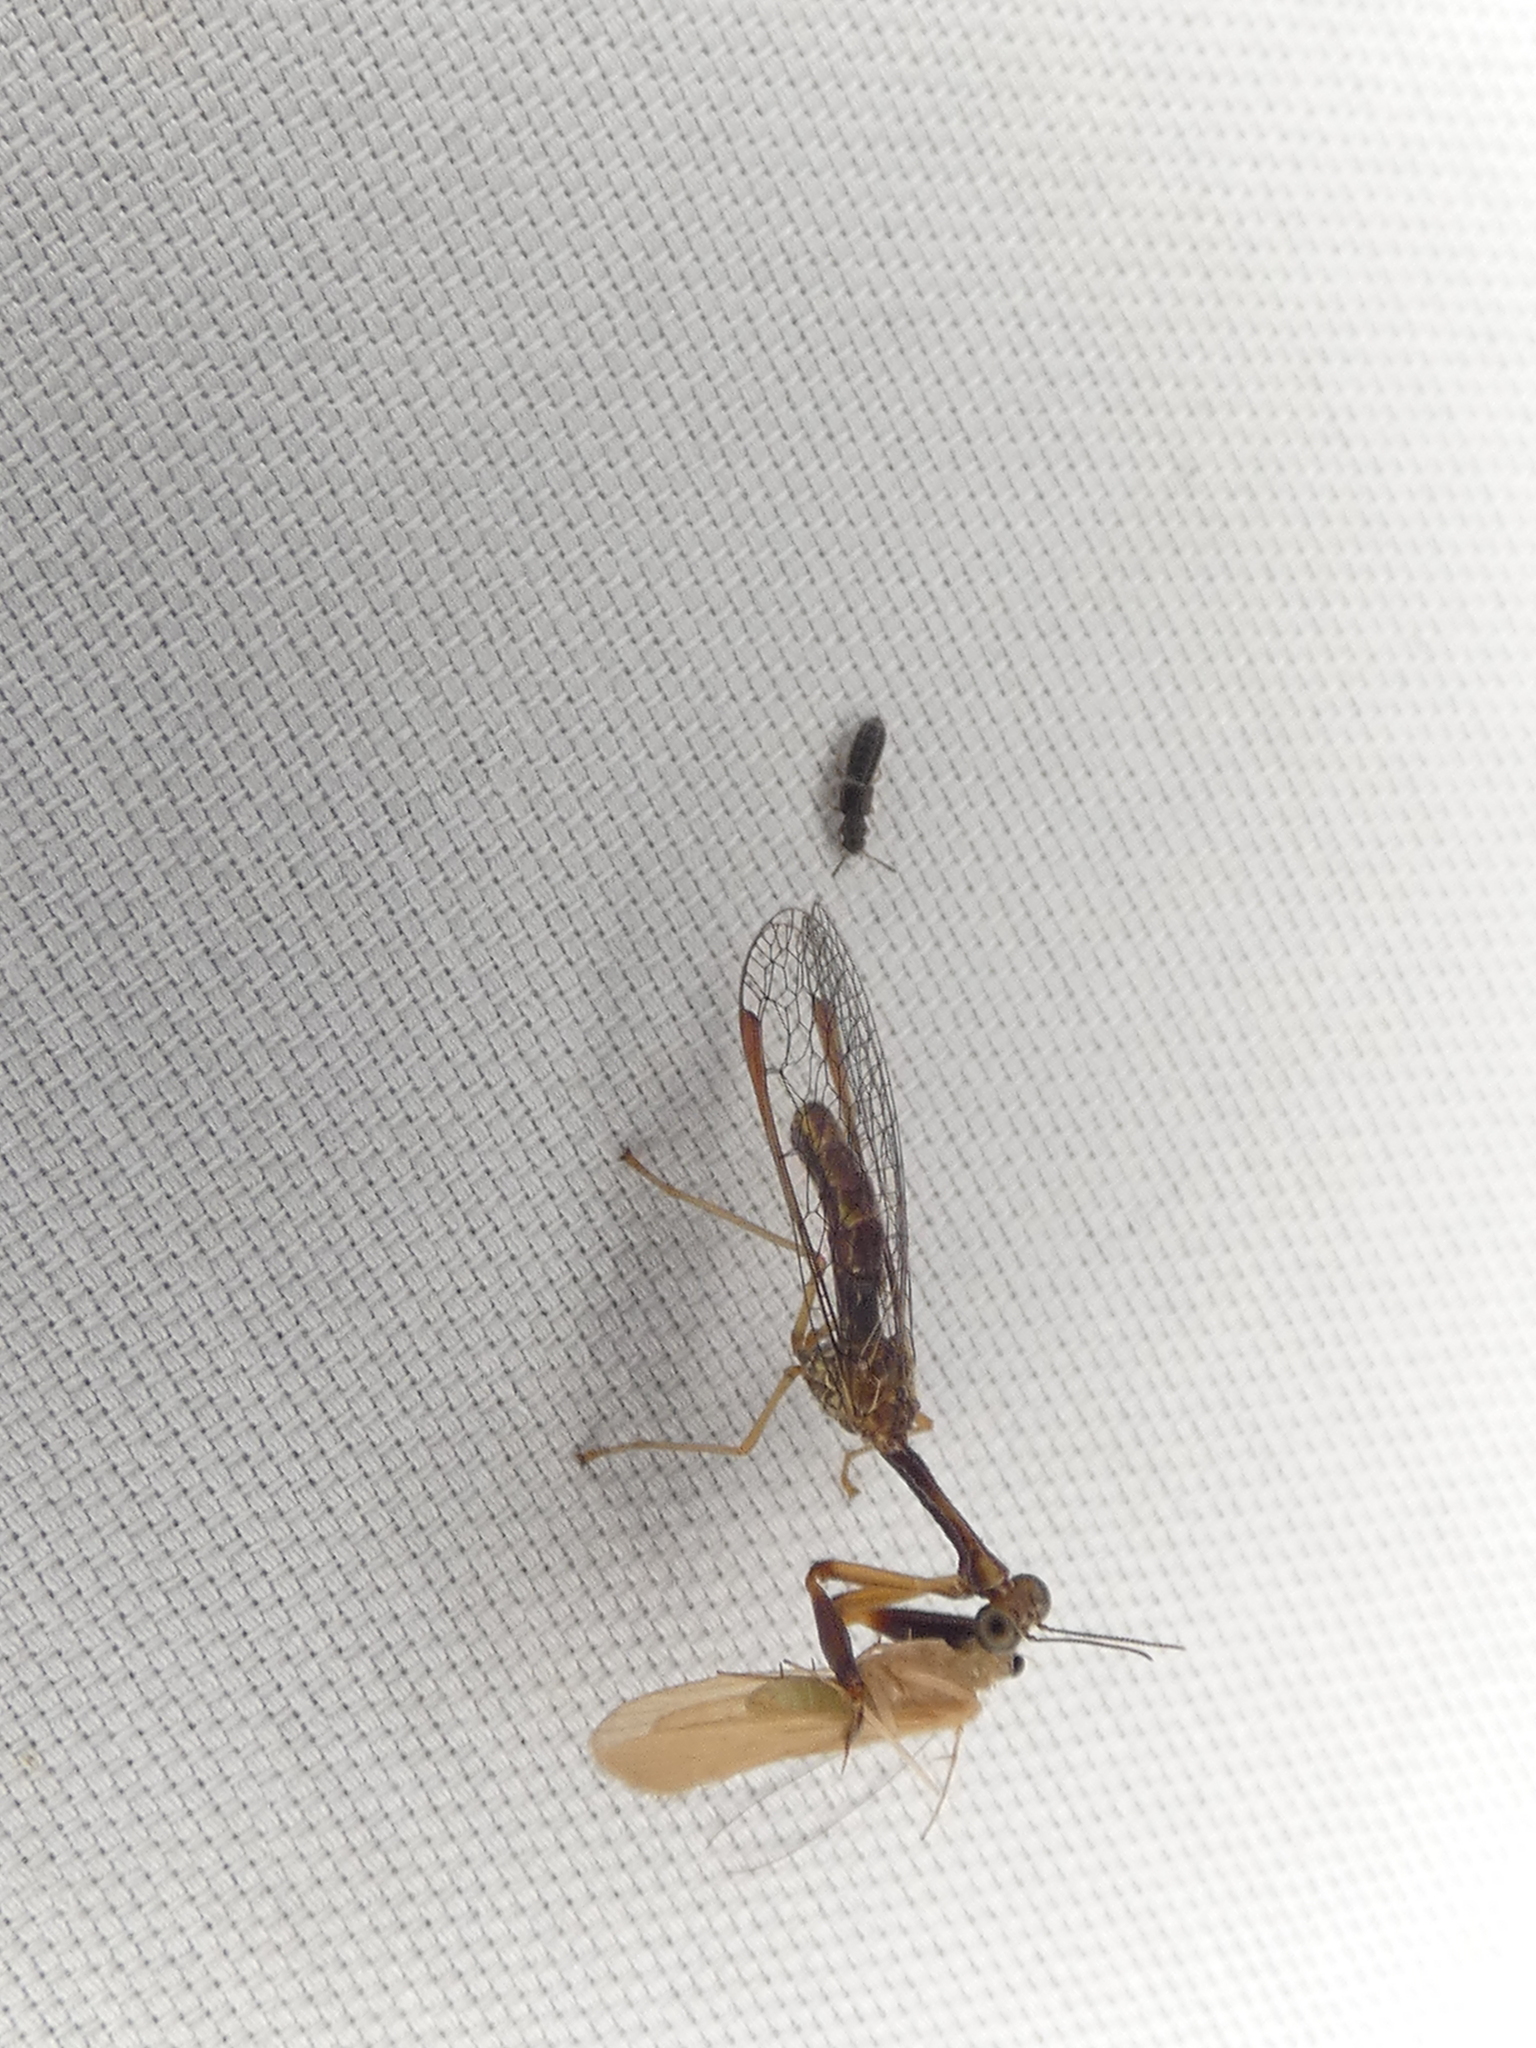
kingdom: Animalia
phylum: Arthropoda
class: Insecta
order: Neuroptera
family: Mantispidae
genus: Leptomantispa
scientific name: Leptomantispa pulchella
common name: Stevens's mantidfly
